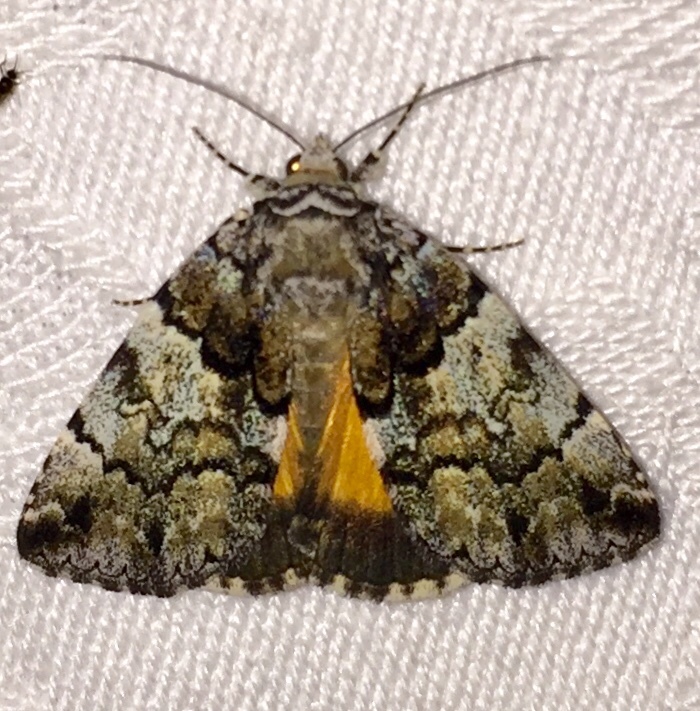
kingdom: Animalia
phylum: Arthropoda
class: Insecta
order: Lepidoptera
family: Erebidae
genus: Allotria
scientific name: Allotria elonympha
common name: False underwing
